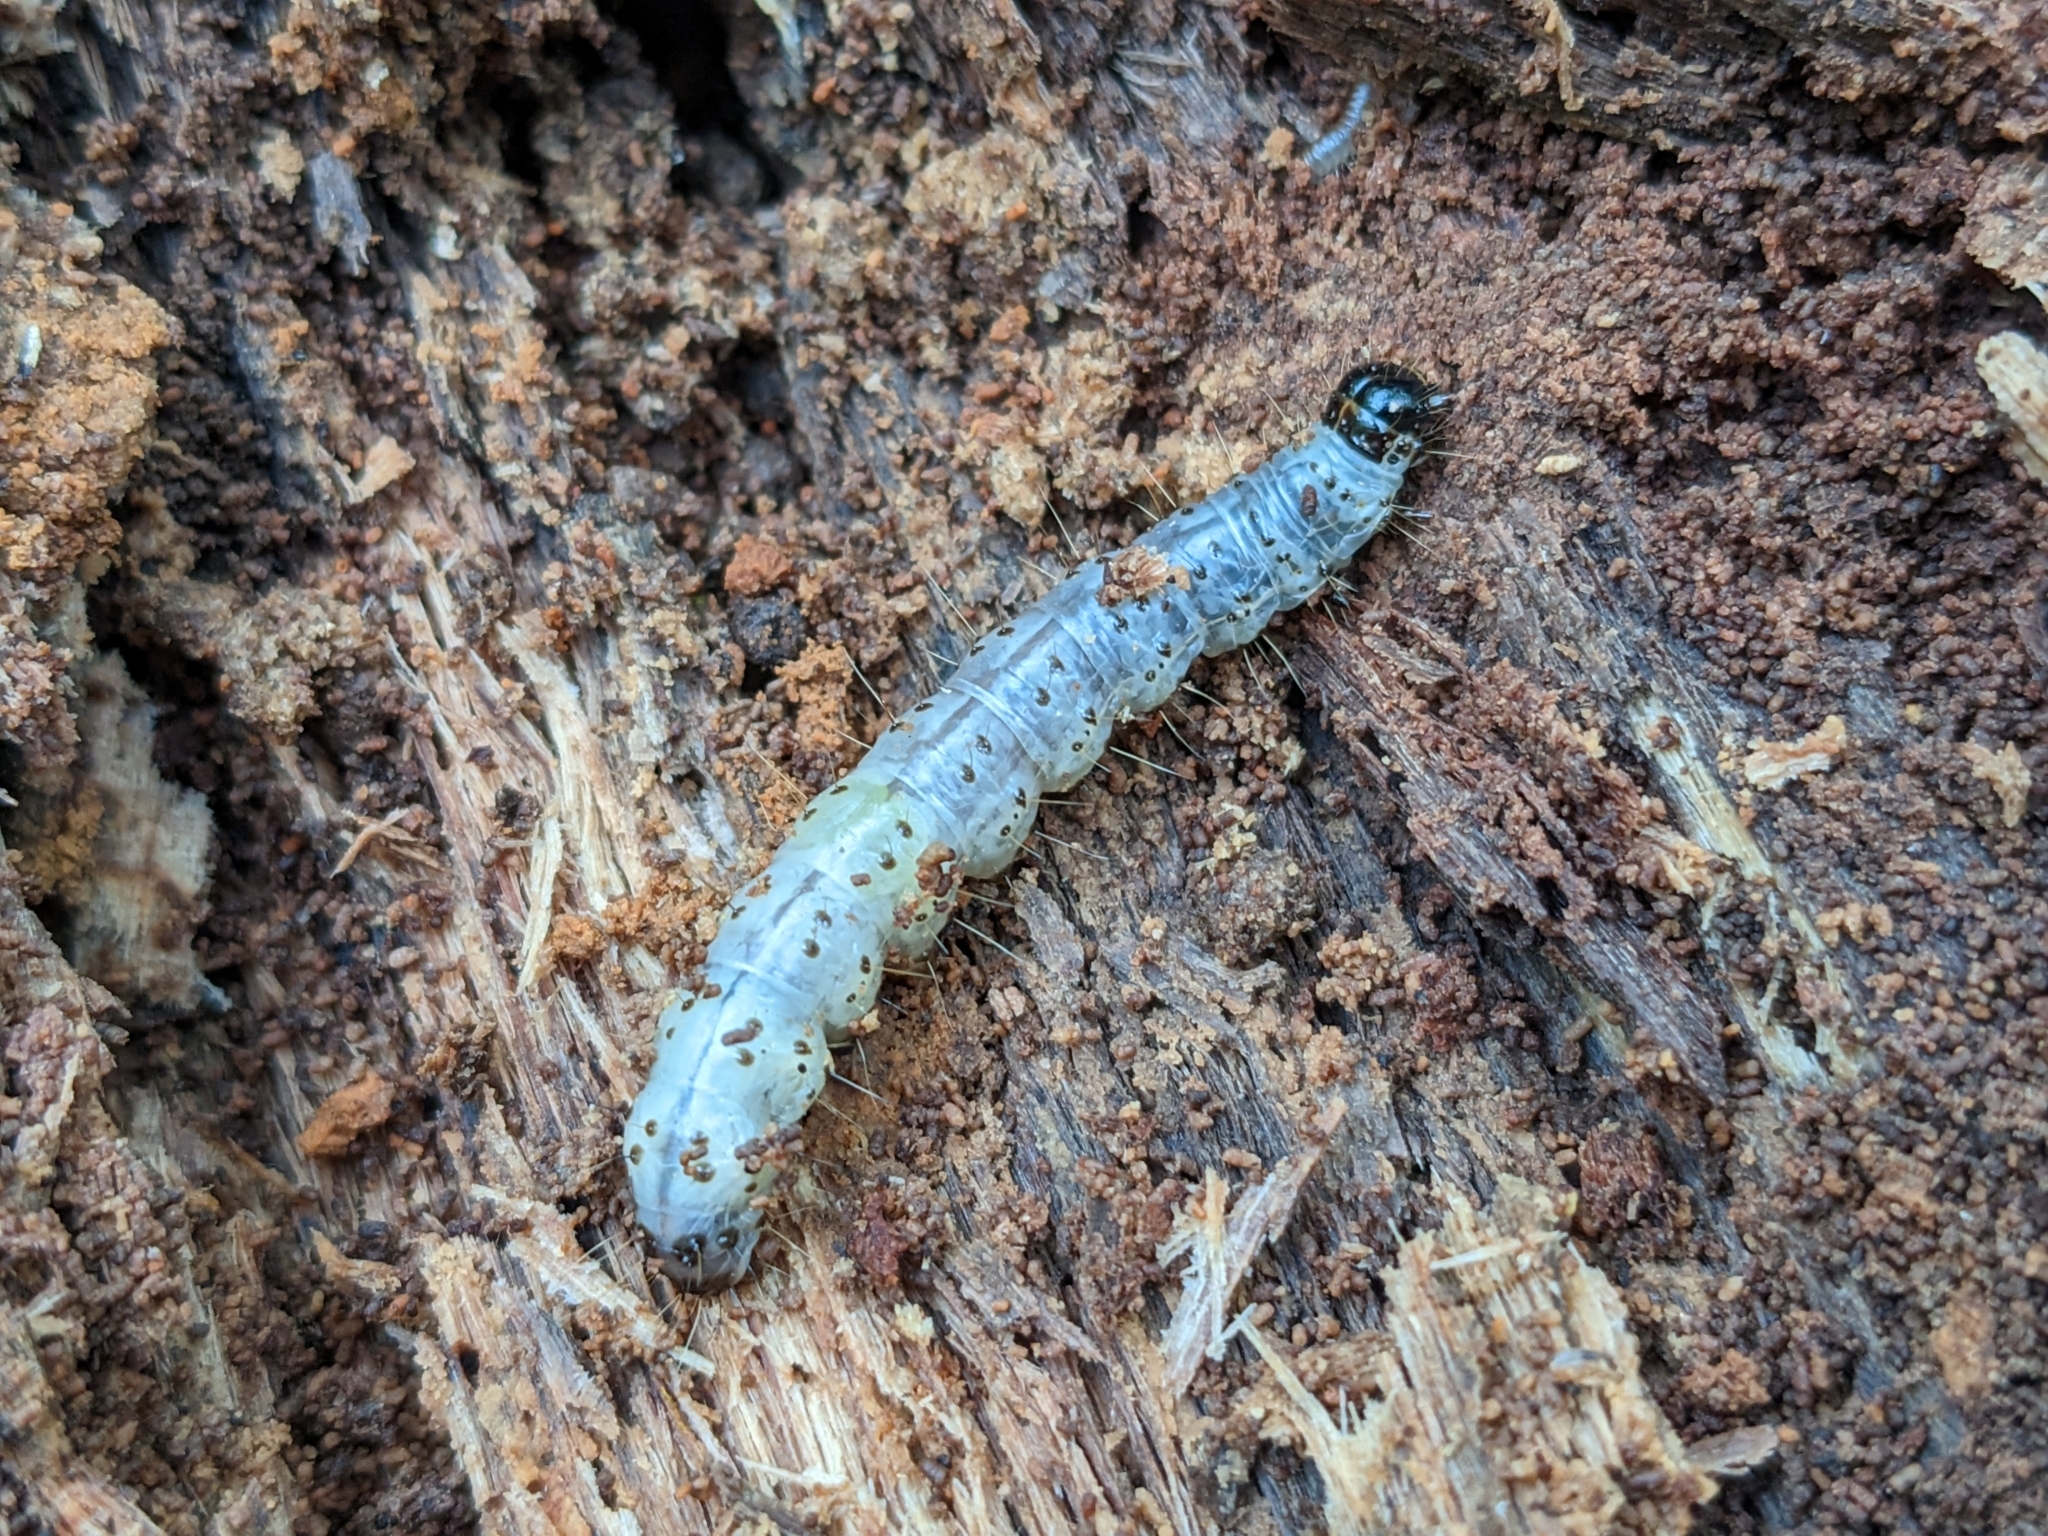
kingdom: Animalia
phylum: Arthropoda
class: Insecta
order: Lepidoptera
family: Erebidae
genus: Scolecocampa
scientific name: Scolecocampa liburna
